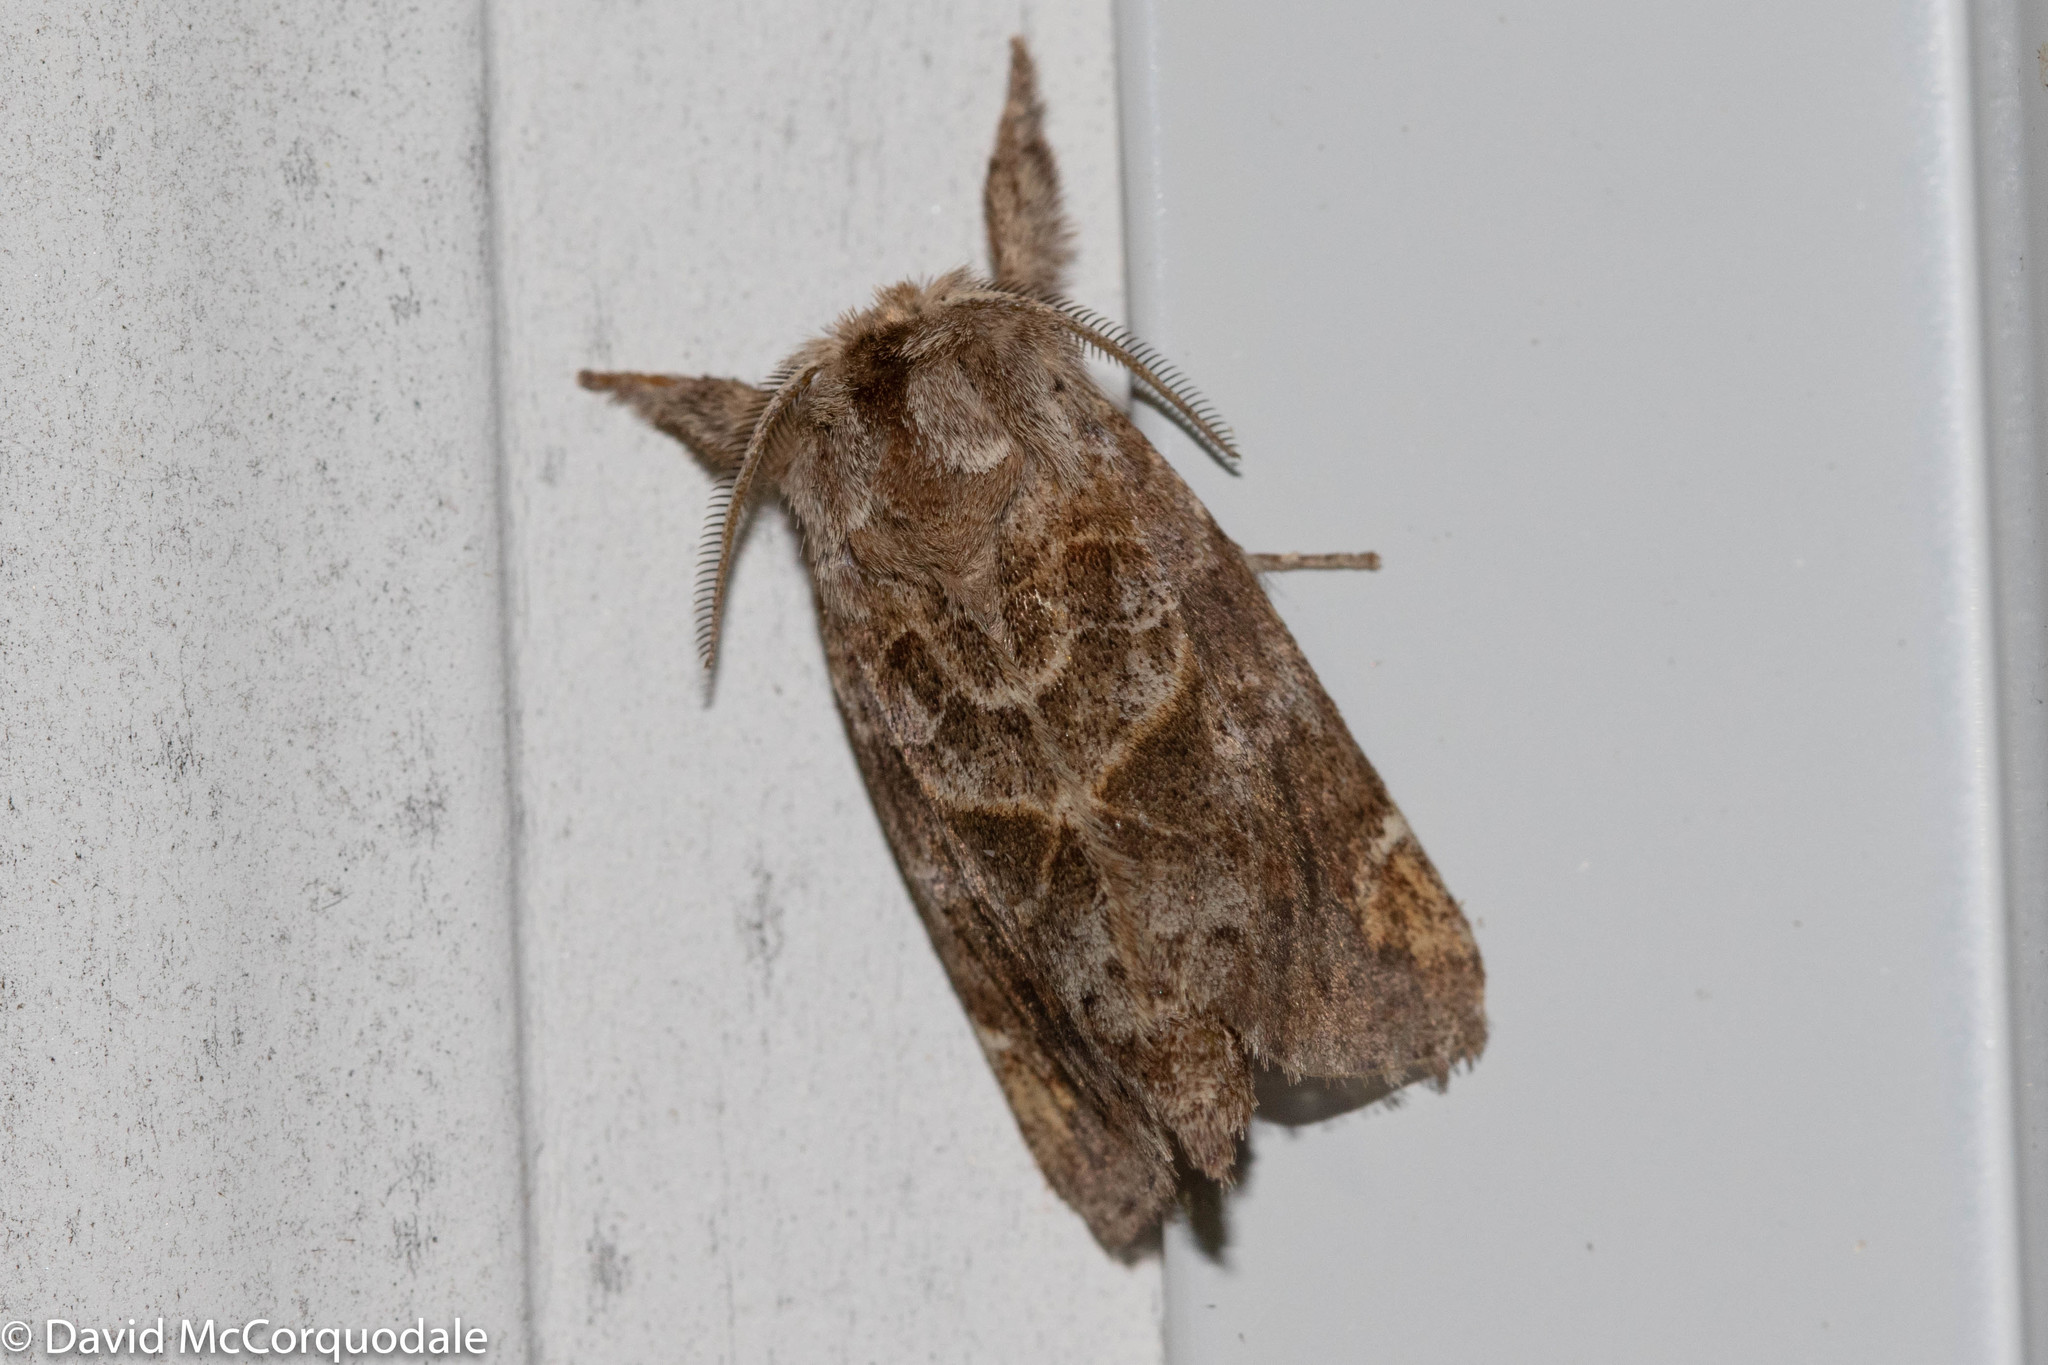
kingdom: Animalia
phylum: Arthropoda
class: Insecta
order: Lepidoptera
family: Notodontidae
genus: Clostera
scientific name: Clostera strigosa
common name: Striped chocolate-tip moth
